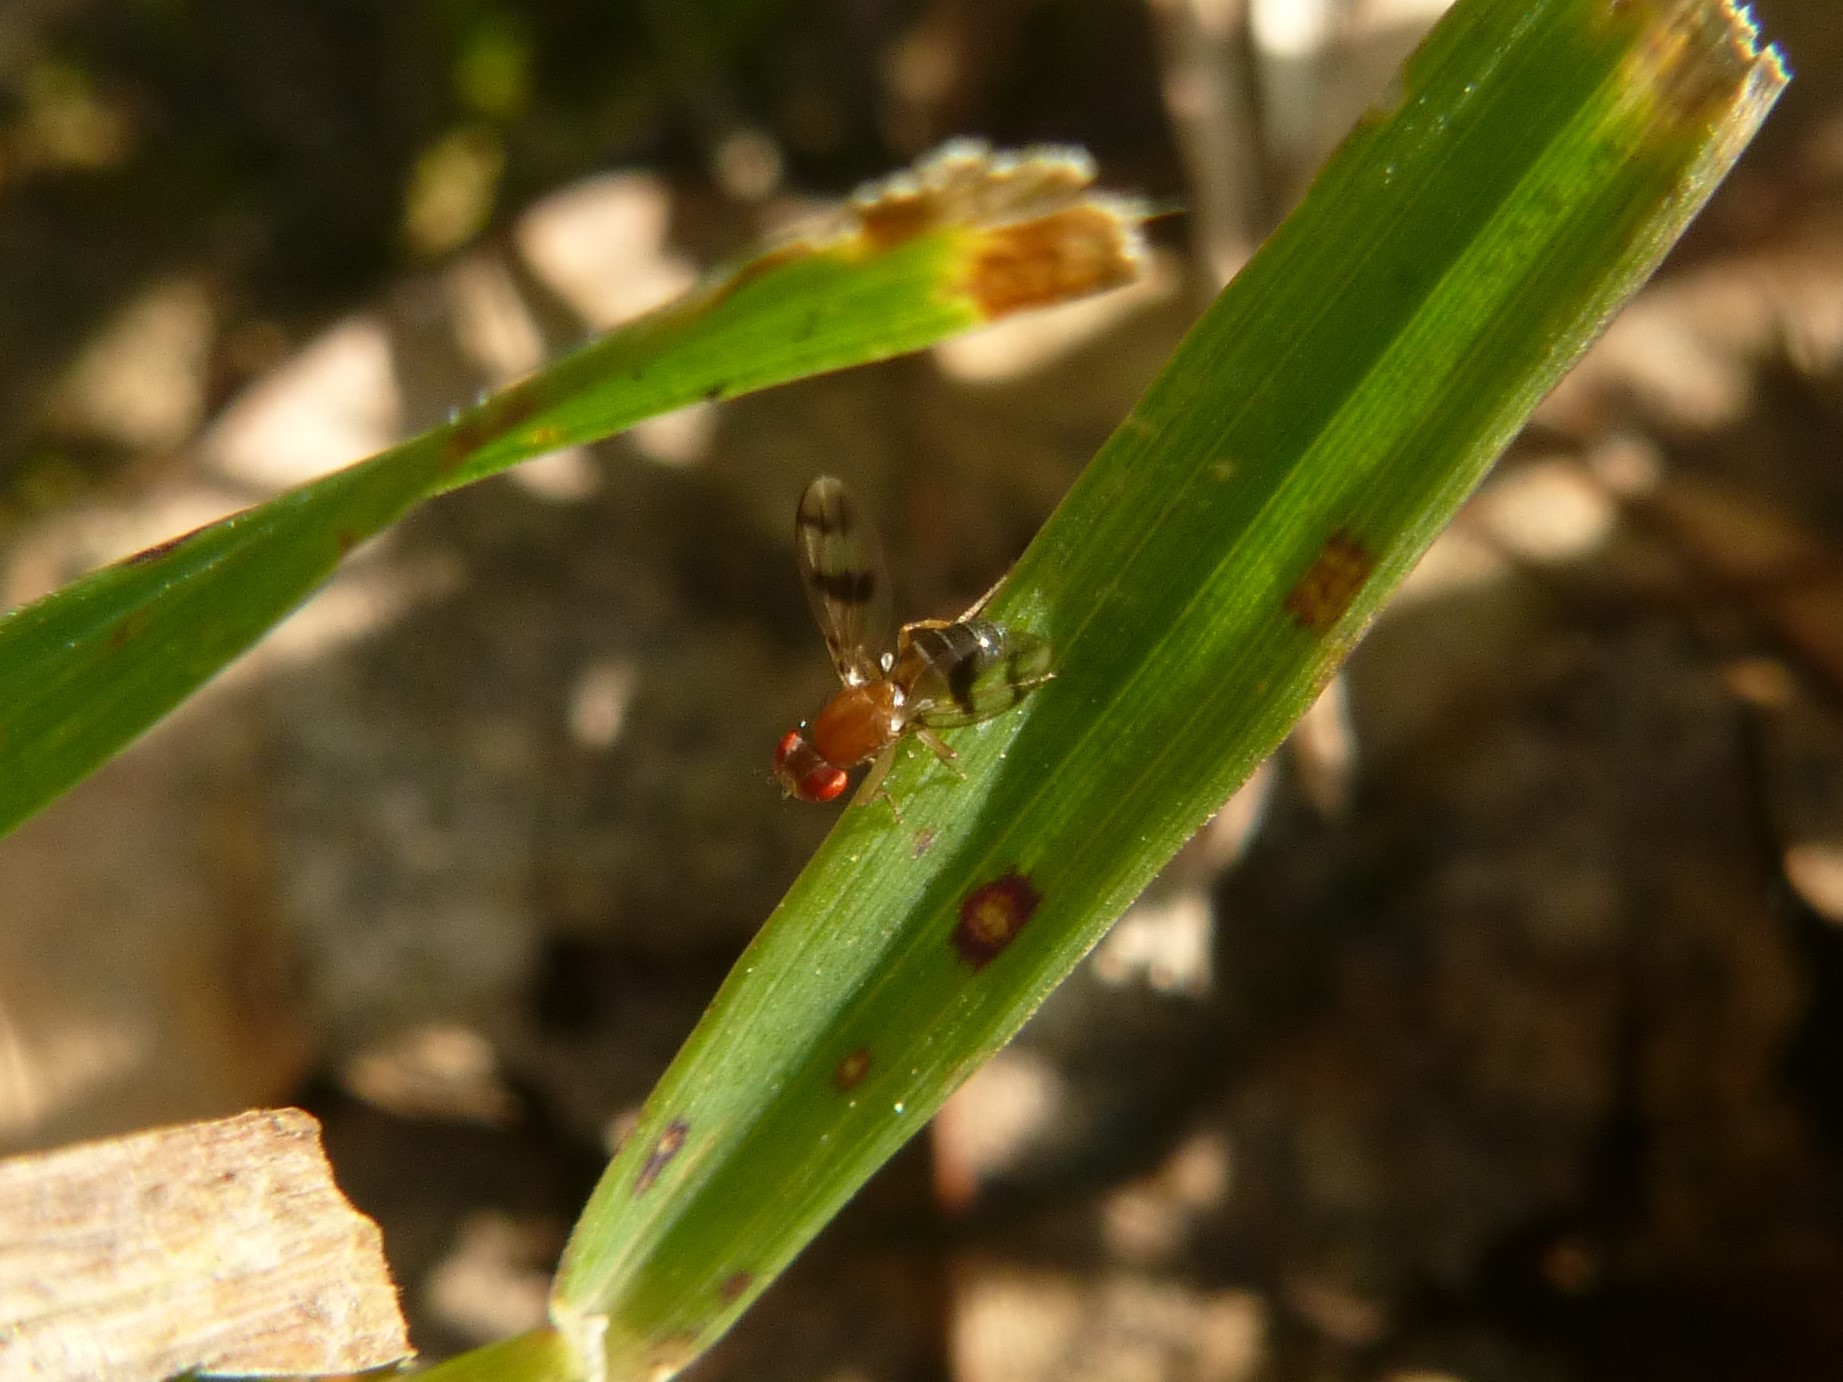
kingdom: Animalia
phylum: Arthropoda
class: Insecta
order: Diptera
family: Drosophilidae
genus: Chymomyza
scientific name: Chymomyza amoena
